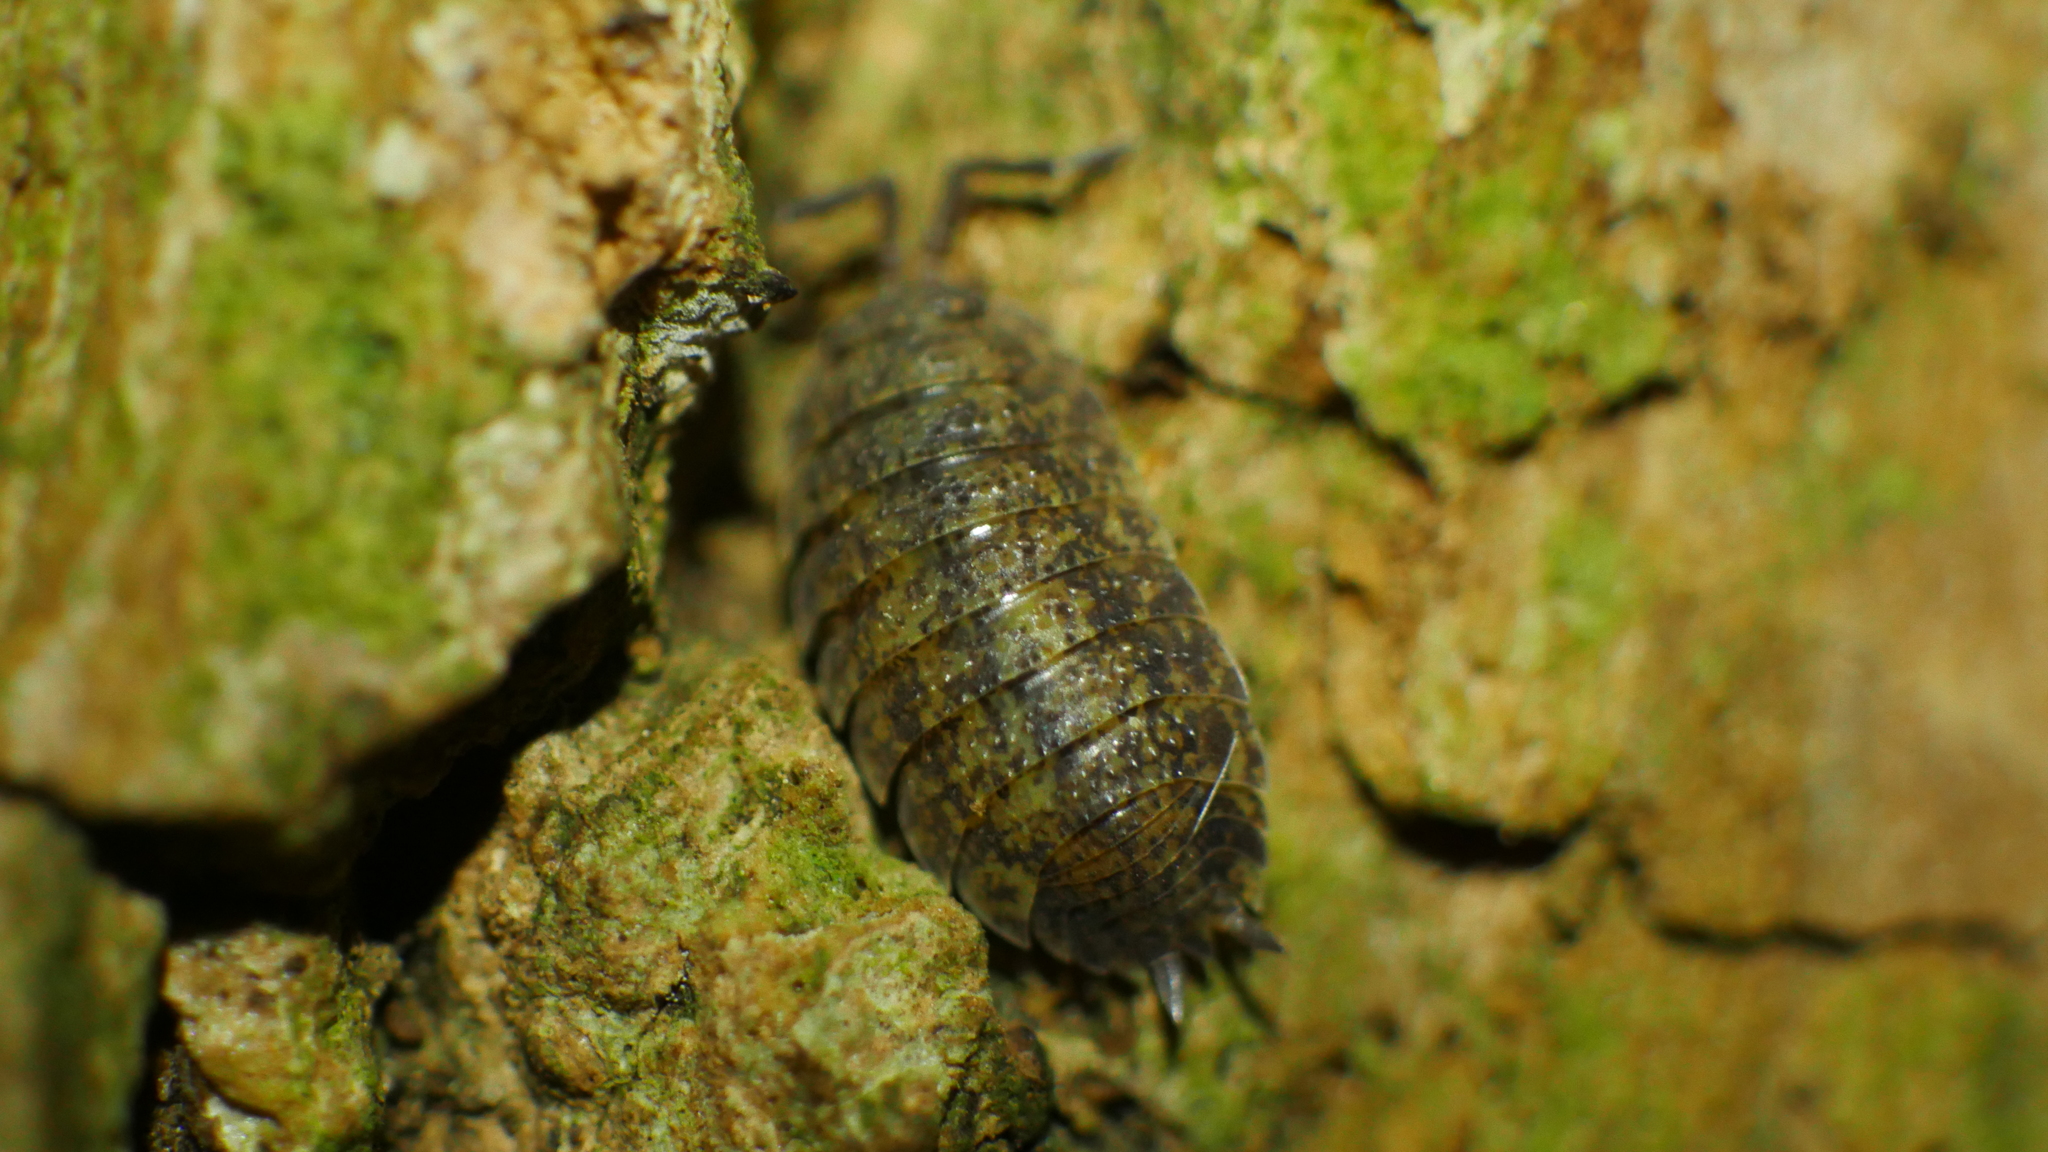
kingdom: Animalia
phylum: Arthropoda
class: Malacostraca
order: Isopoda
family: Porcellionidae
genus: Porcellio
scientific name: Porcellio scaber
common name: Common rough woodlouse
